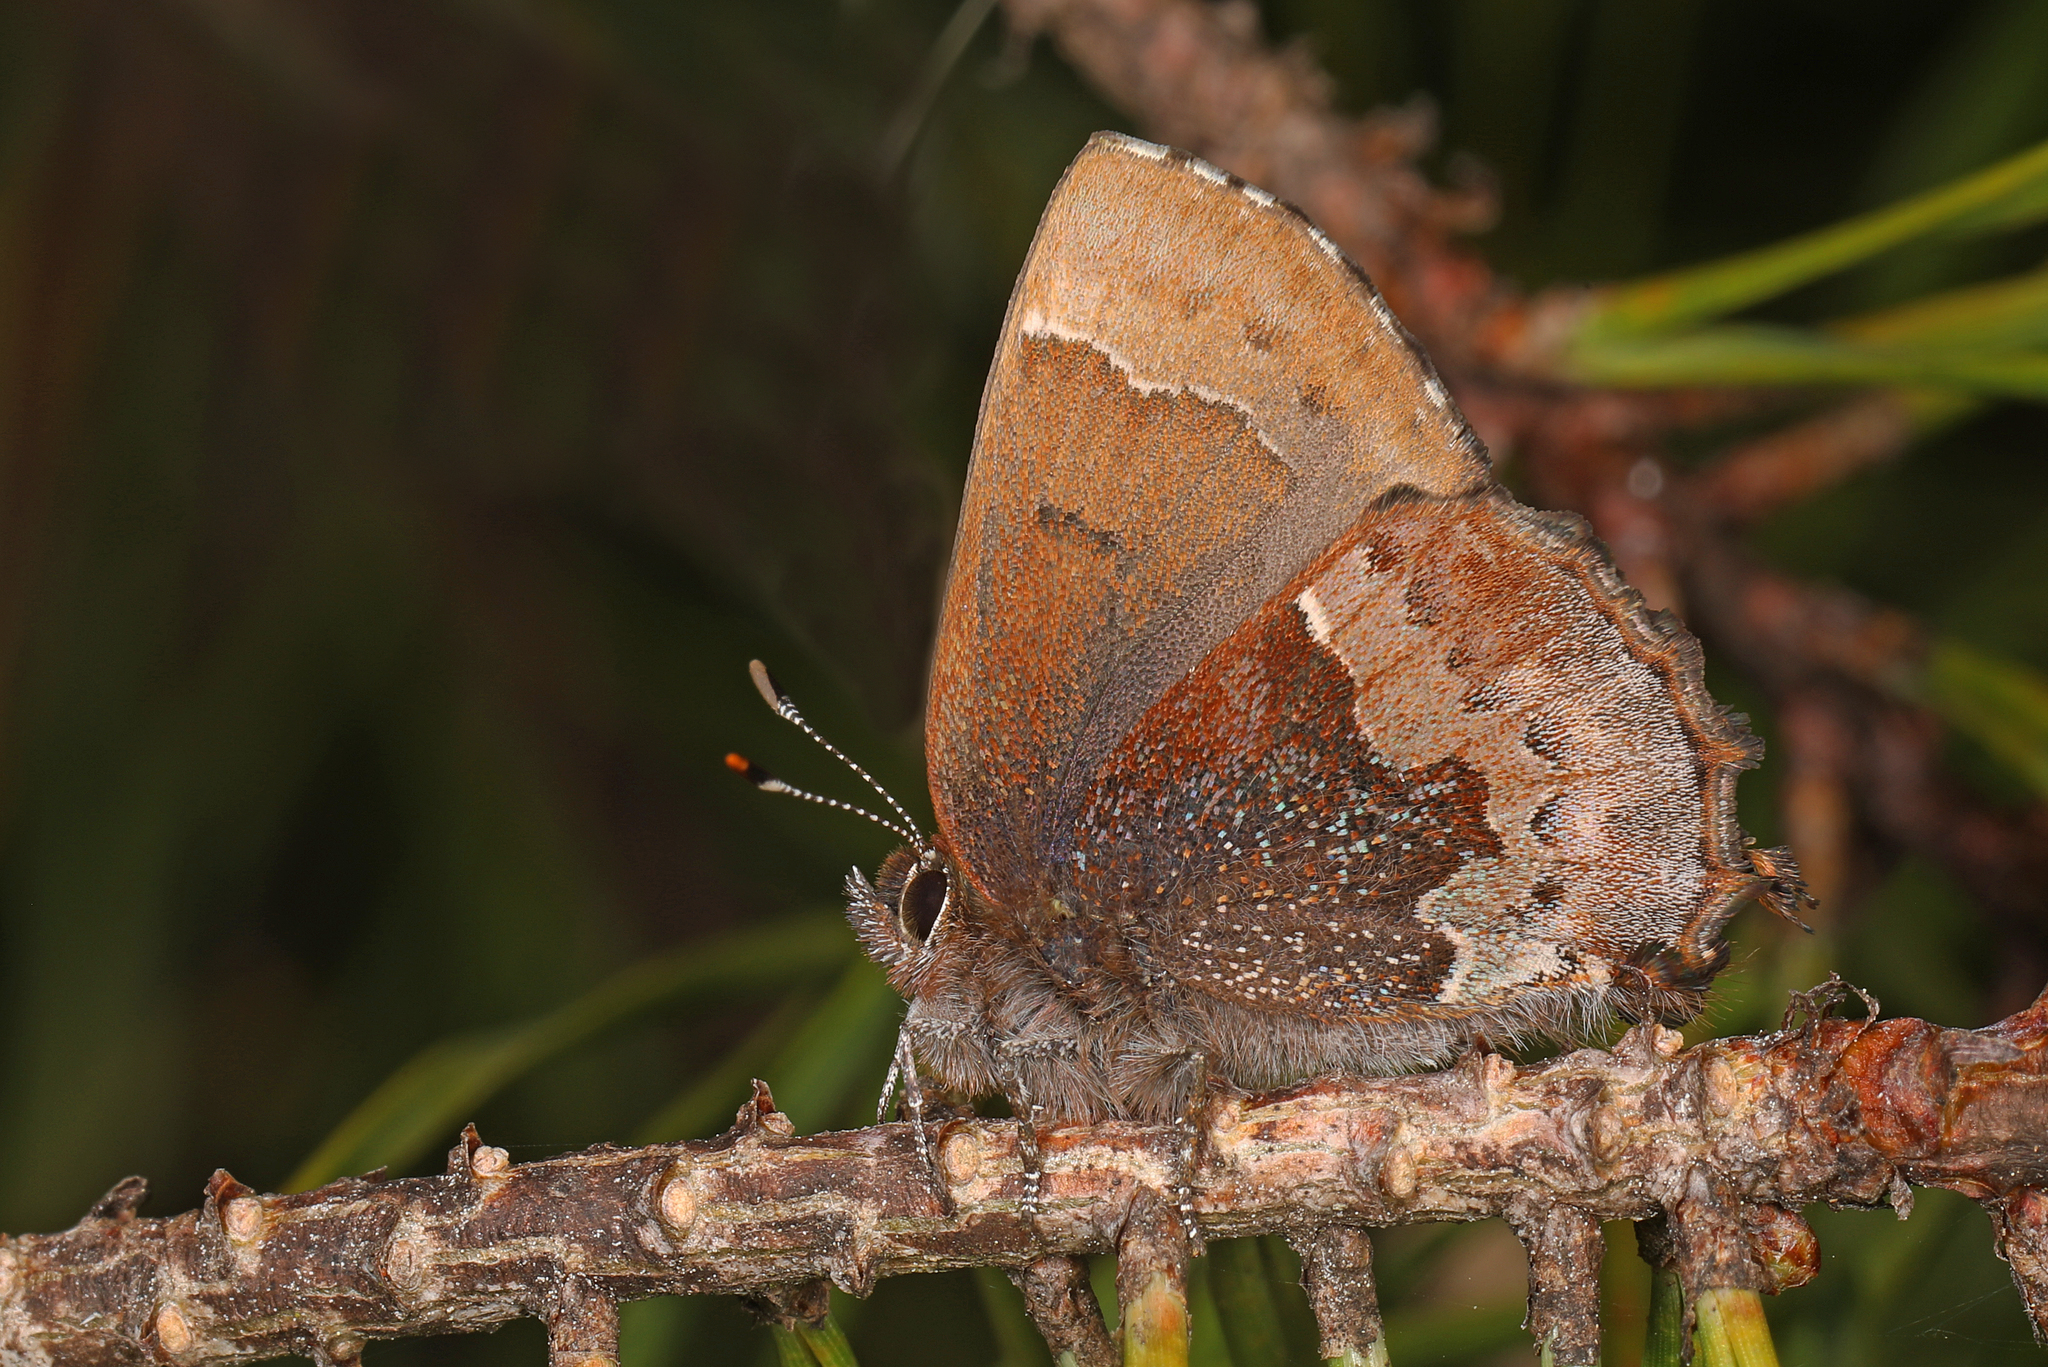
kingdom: Animalia
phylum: Arthropoda
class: Insecta
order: Lepidoptera
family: Lycaenidae
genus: Incisalia
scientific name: Incisalia henrici
